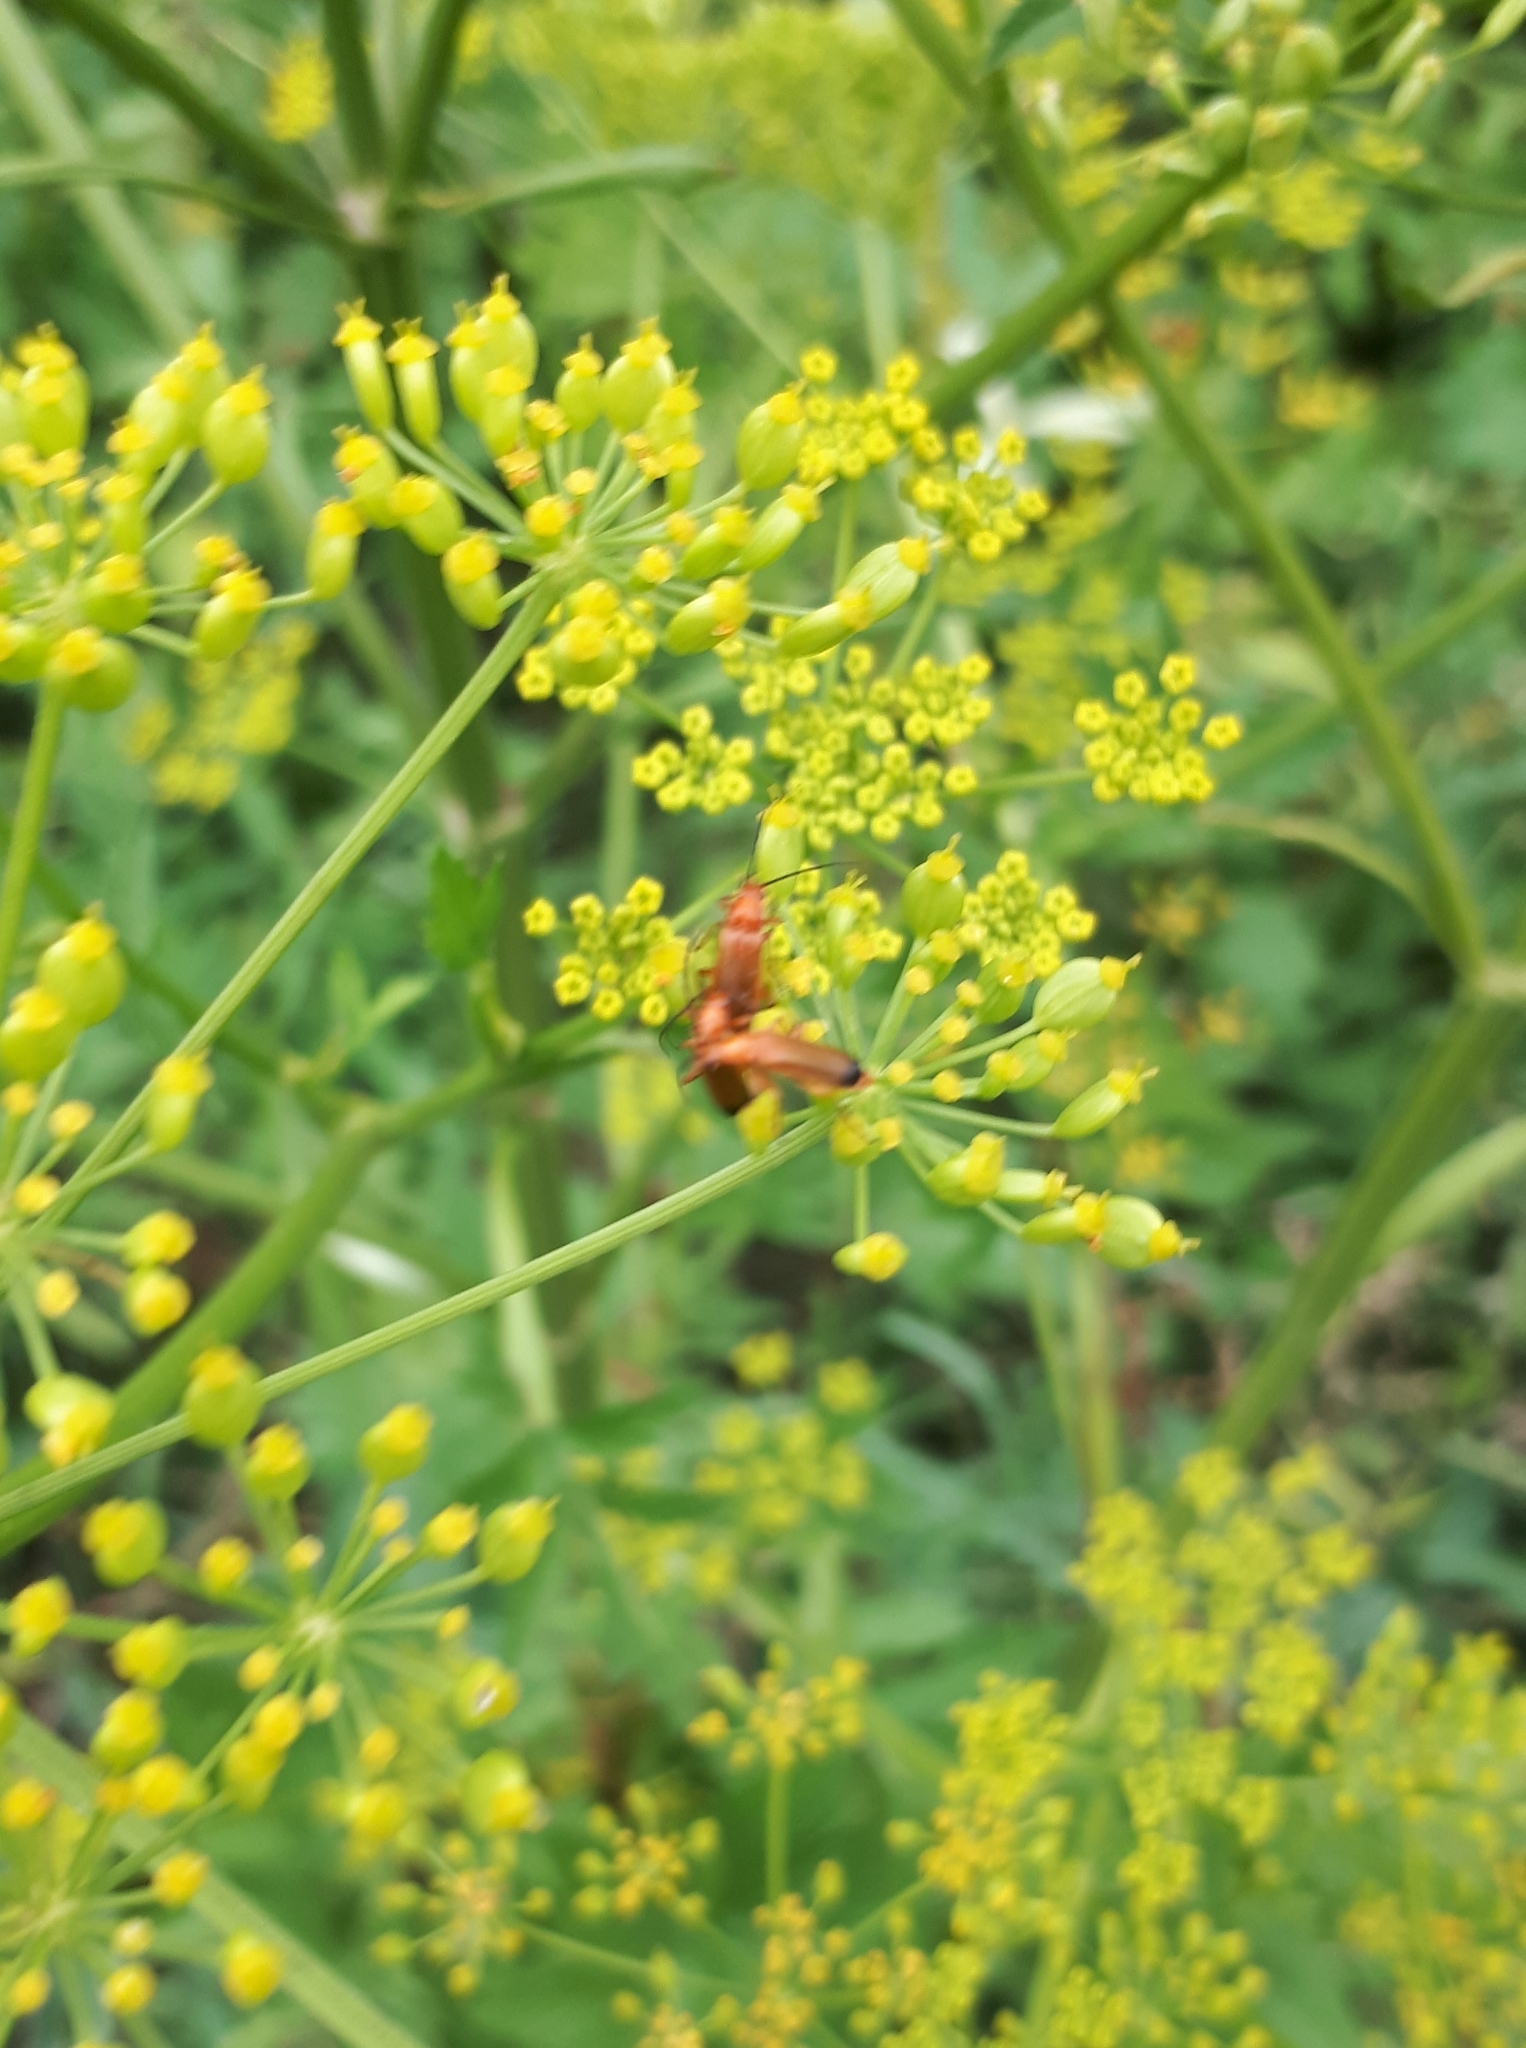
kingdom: Animalia
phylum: Arthropoda
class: Insecta
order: Coleoptera
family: Cantharidae
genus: Rhagonycha
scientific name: Rhagonycha fulva
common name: Common red soldier beetle
